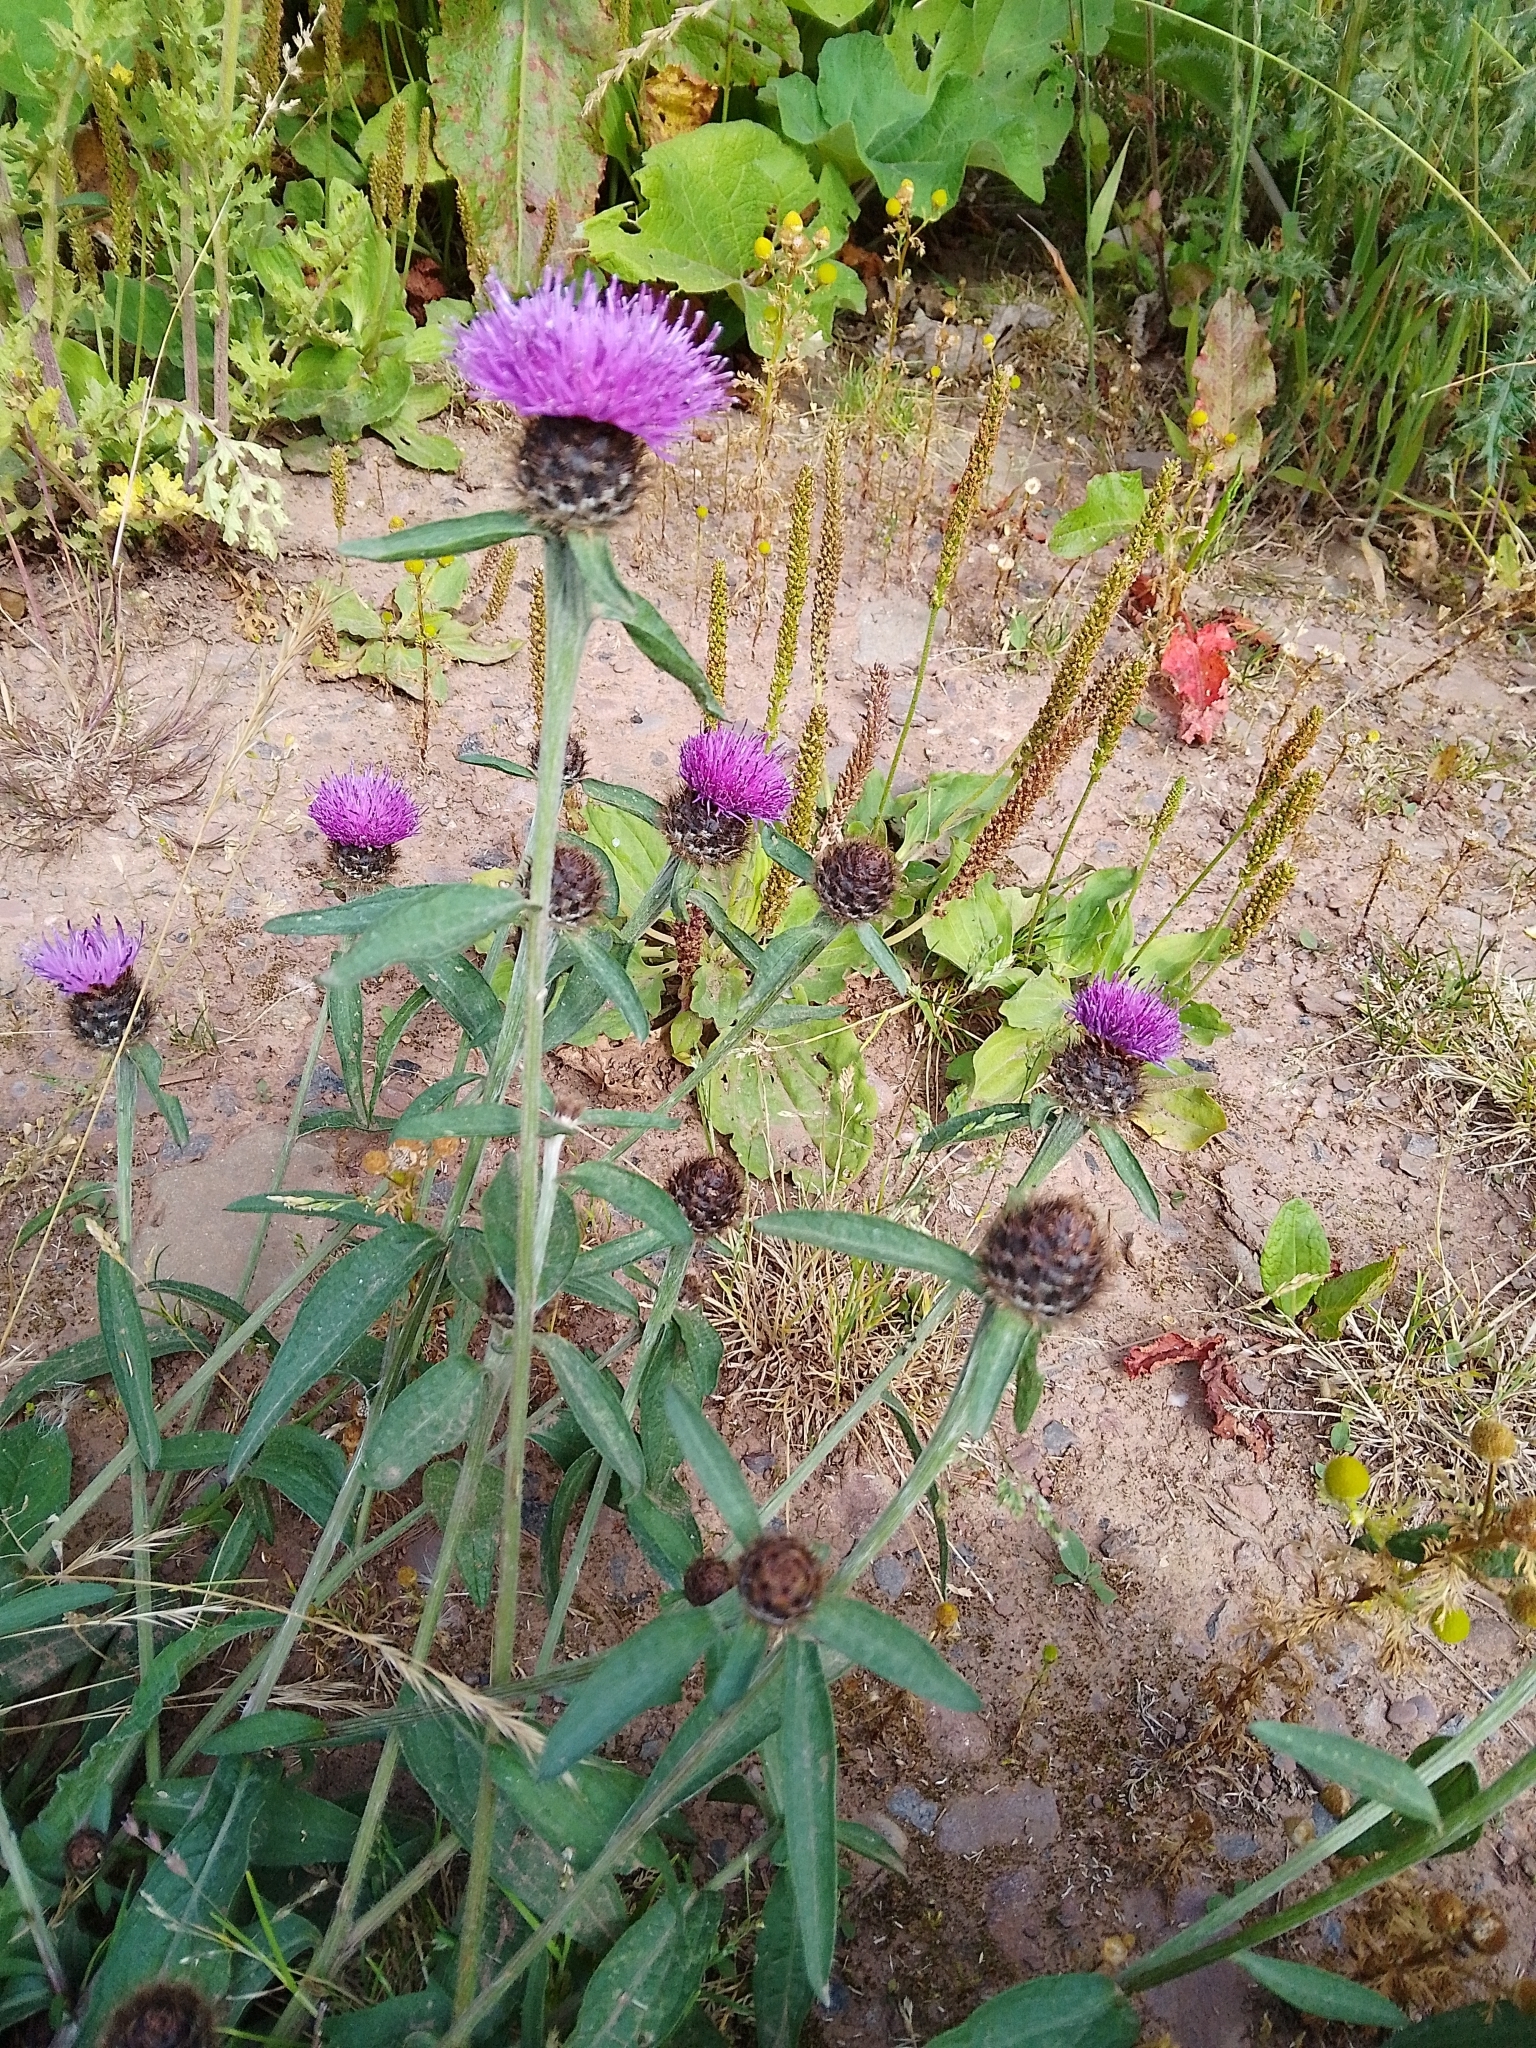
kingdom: Plantae
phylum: Tracheophyta
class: Magnoliopsida
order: Asterales
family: Asteraceae
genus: Centaurea
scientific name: Centaurea nigra
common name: Lesser knapweed
